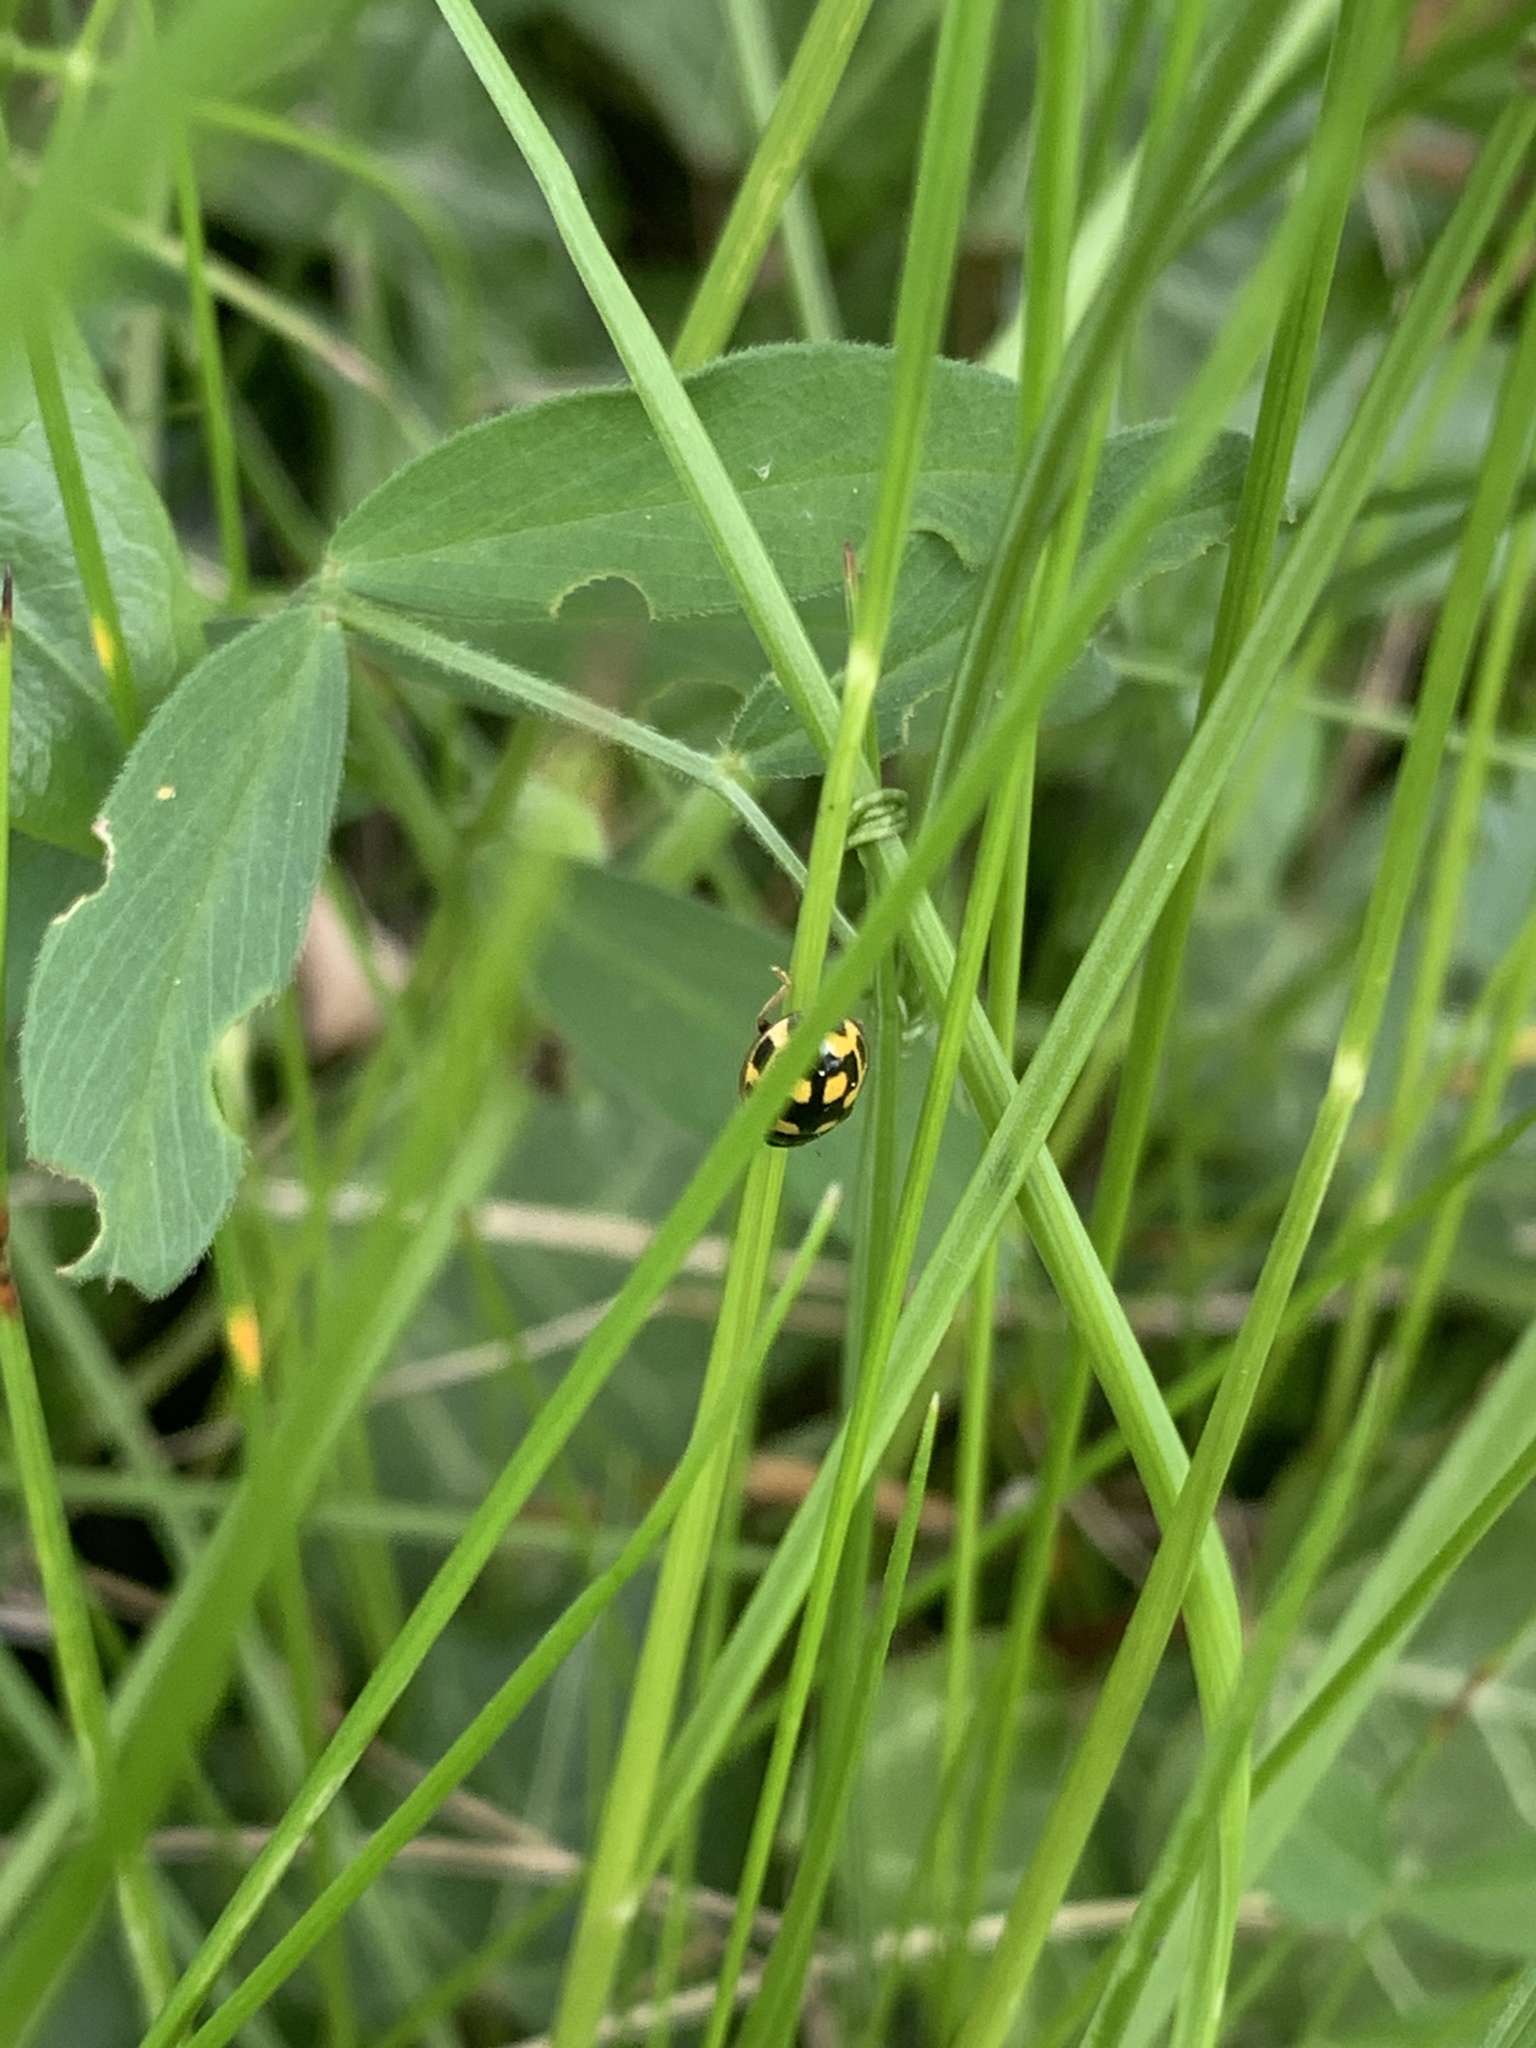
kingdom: Animalia
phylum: Arthropoda
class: Insecta
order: Coleoptera
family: Coccinellidae
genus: Propylaea
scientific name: Propylaea quatuordecimpunctata
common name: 14-spotted ladybird beetle
